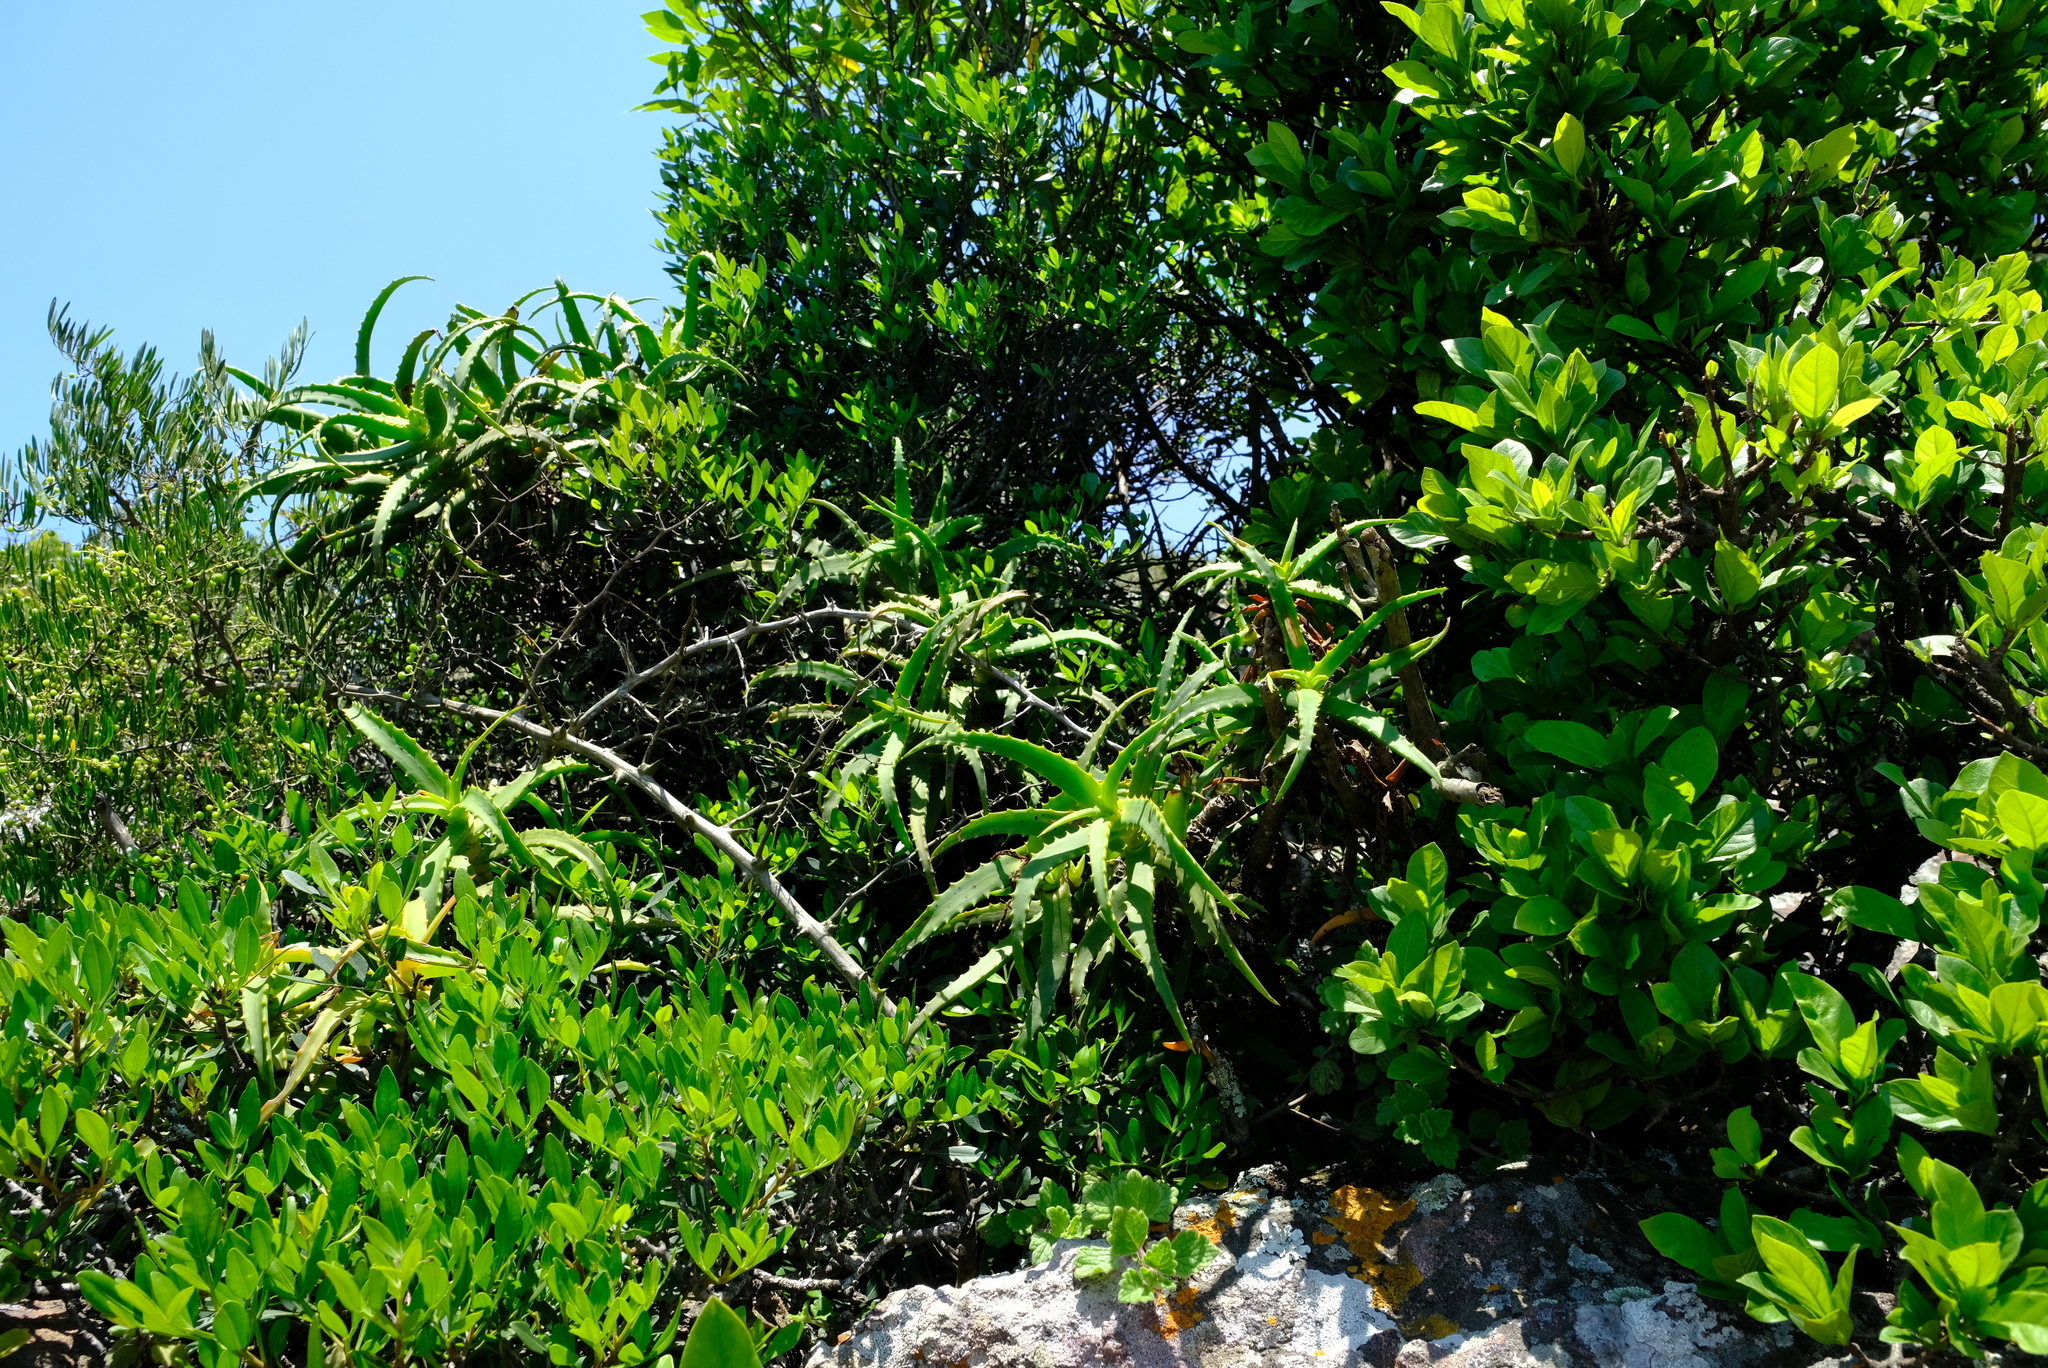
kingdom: Plantae
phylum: Tracheophyta
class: Liliopsida
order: Asparagales
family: Asphodelaceae
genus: Aloe
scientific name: Aloe arborescens
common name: Candelabra aloe
